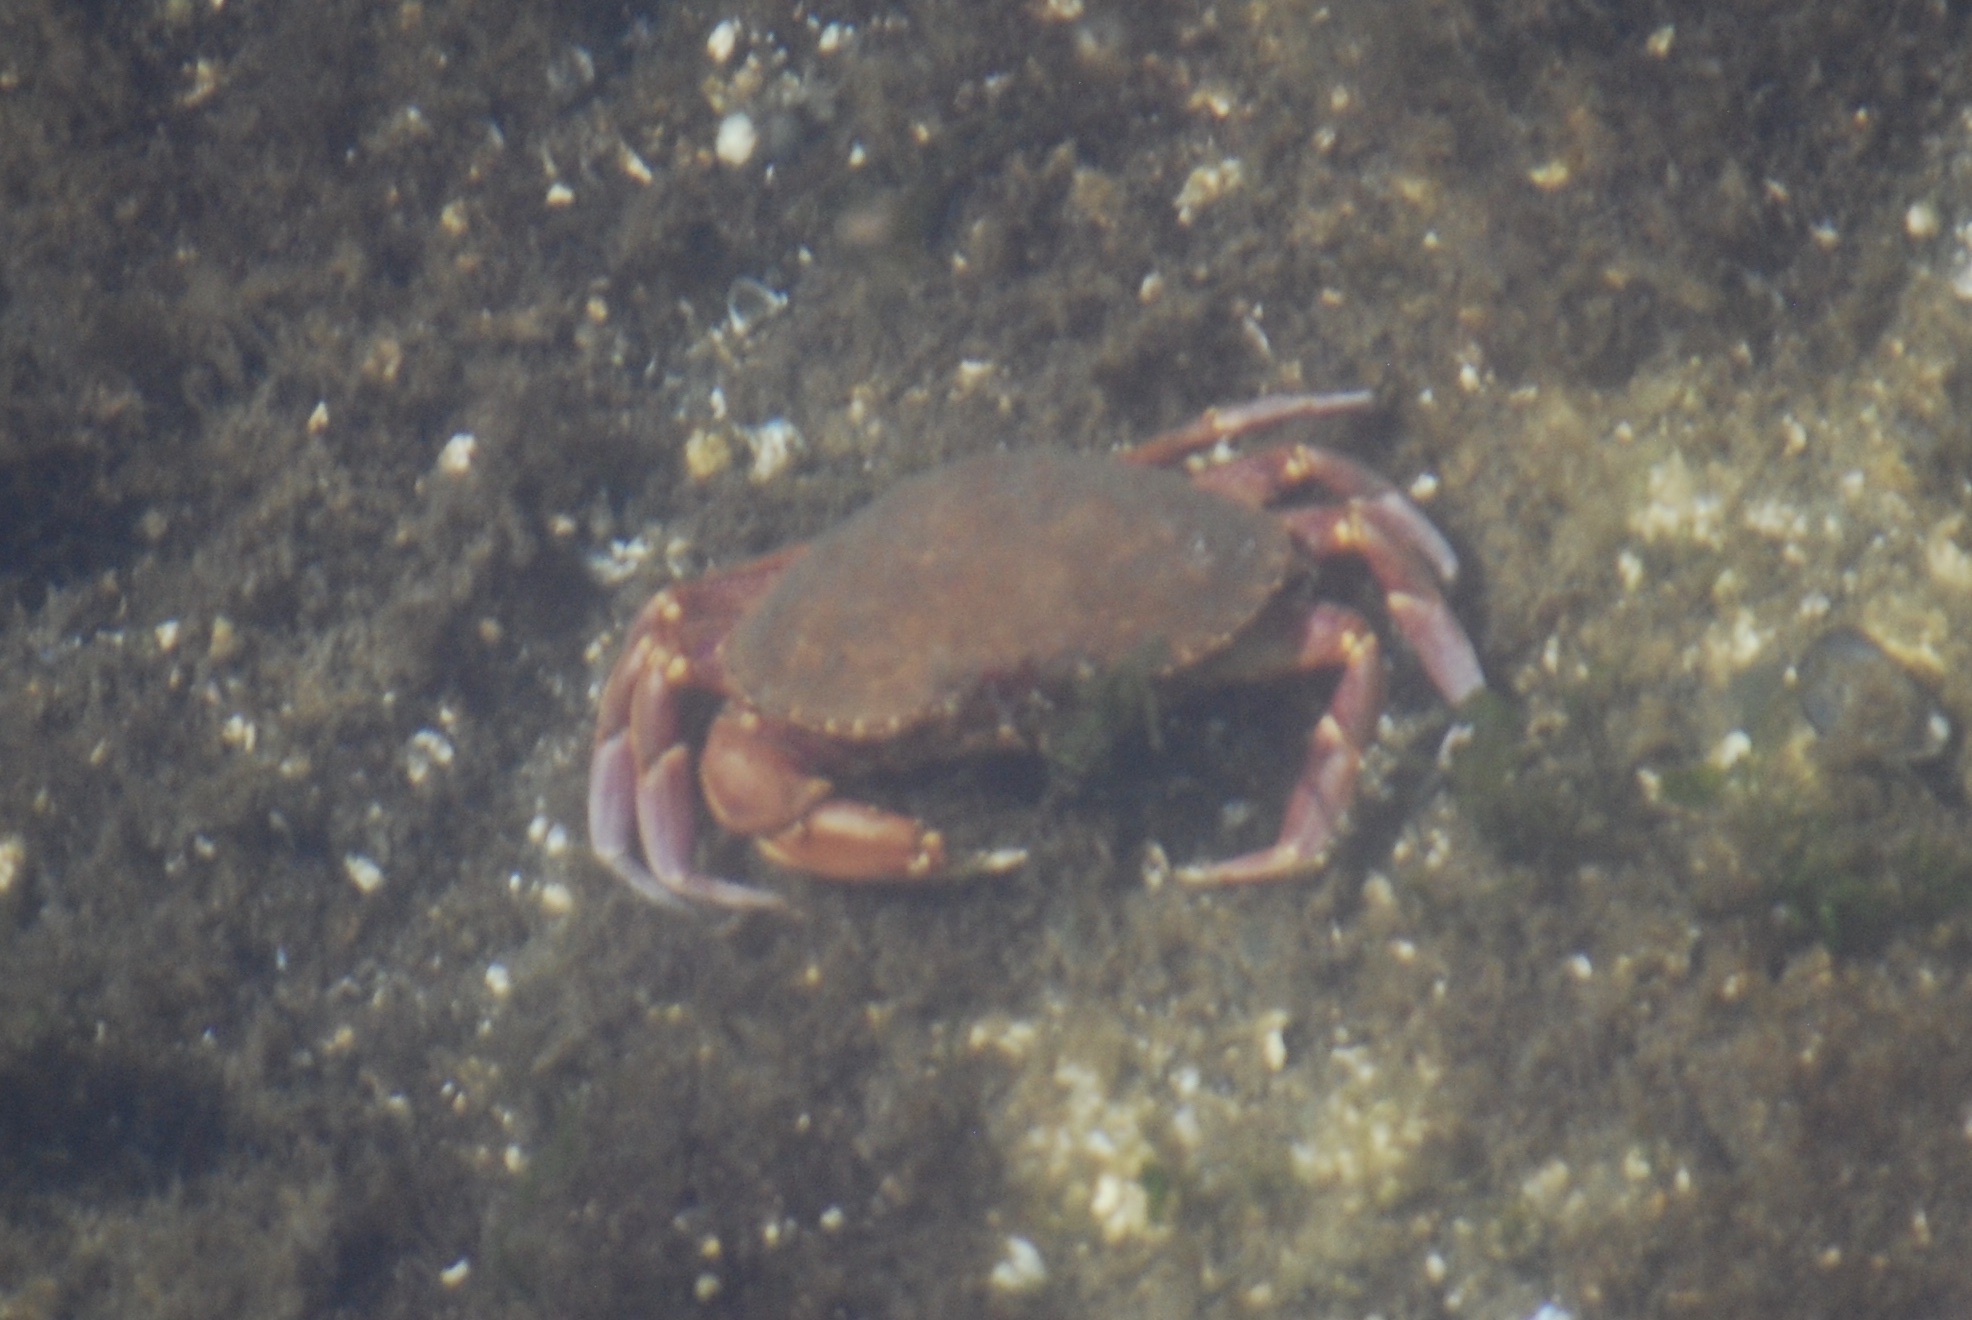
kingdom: Animalia
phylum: Arthropoda
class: Malacostraca
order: Decapoda
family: Cancridae
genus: Metacarcinus
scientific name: Metacarcinus gracilis
